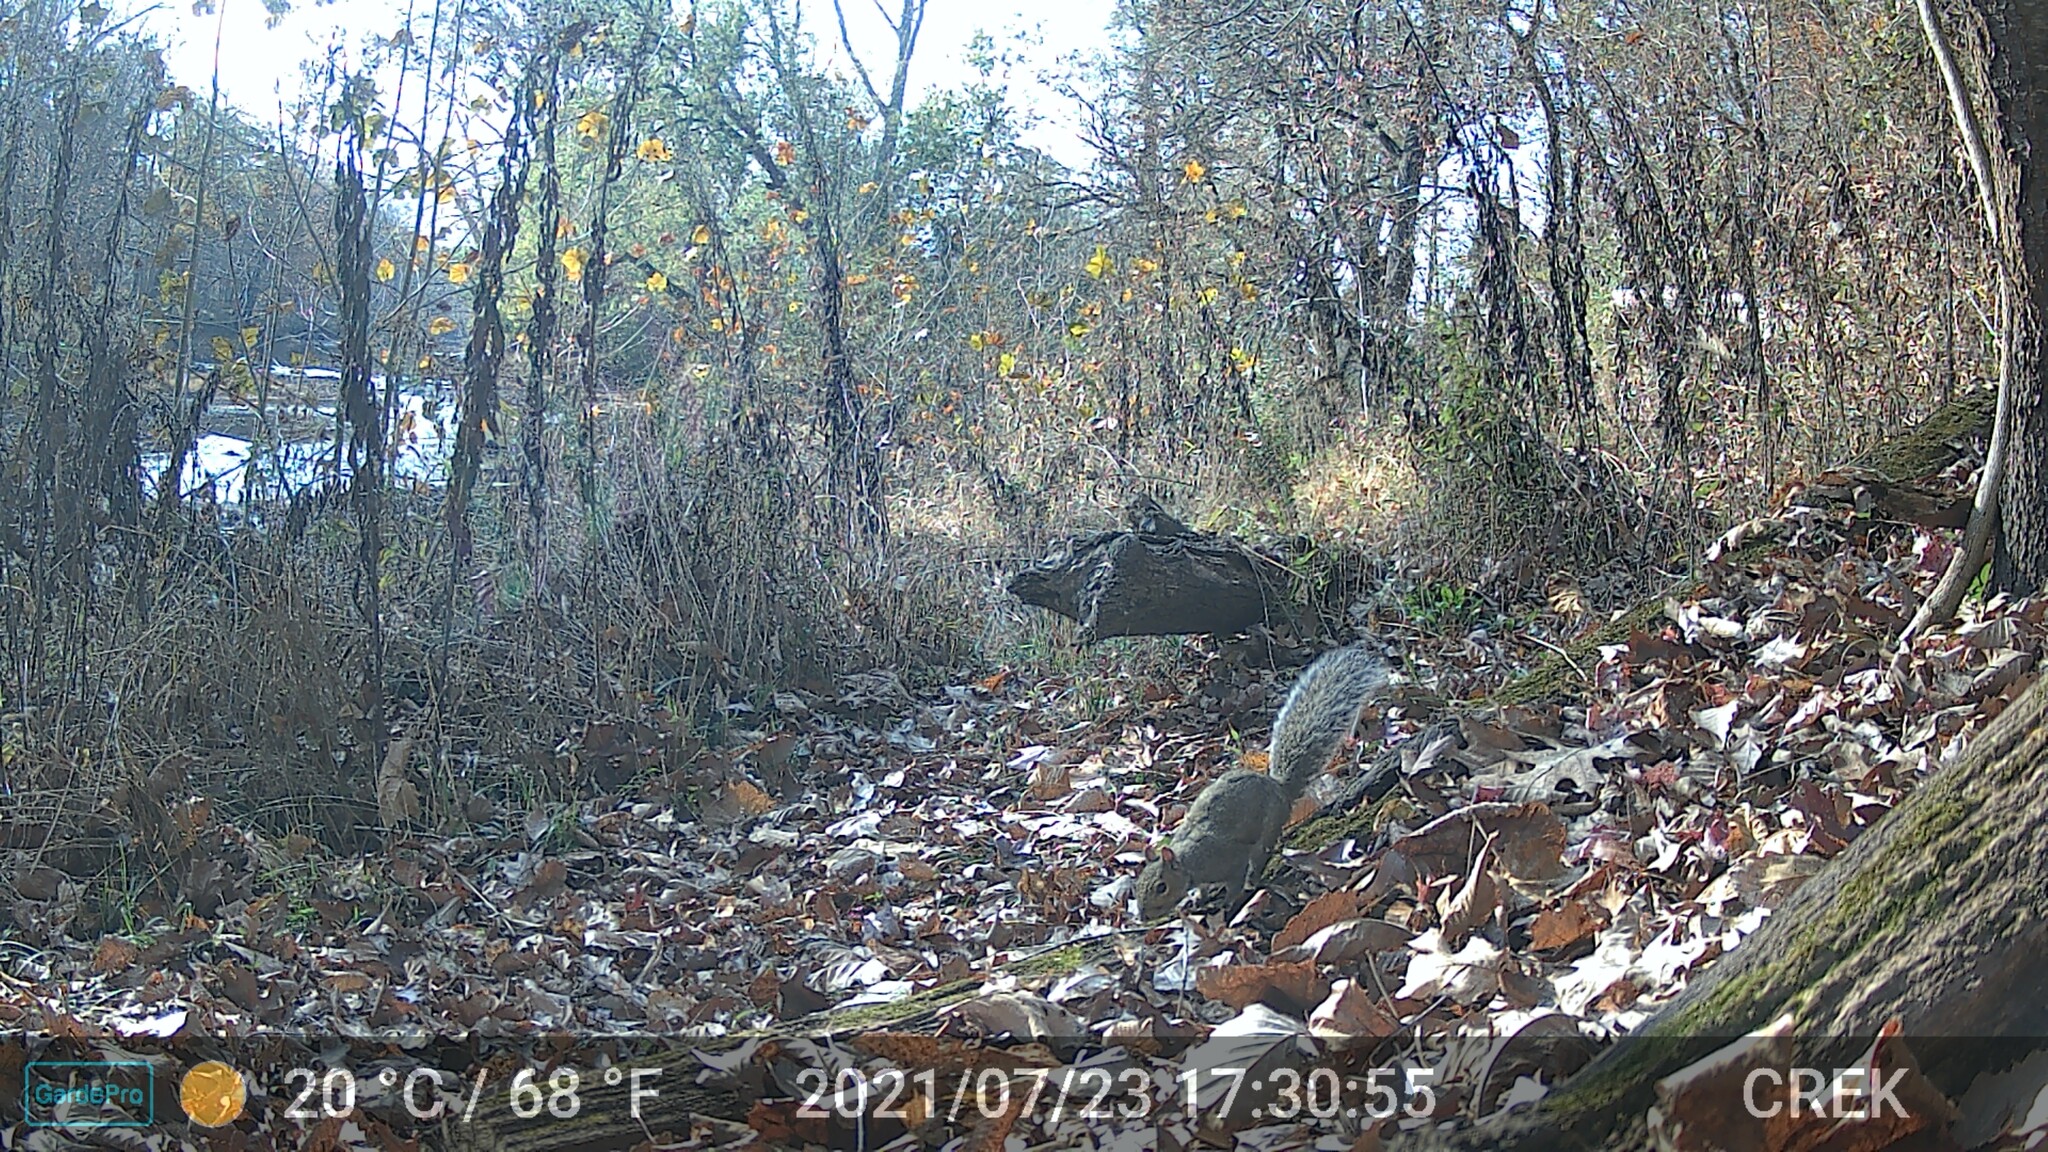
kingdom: Animalia
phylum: Chordata
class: Mammalia
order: Rodentia
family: Sciuridae
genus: Sciurus
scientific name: Sciurus niger
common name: Fox squirrel
